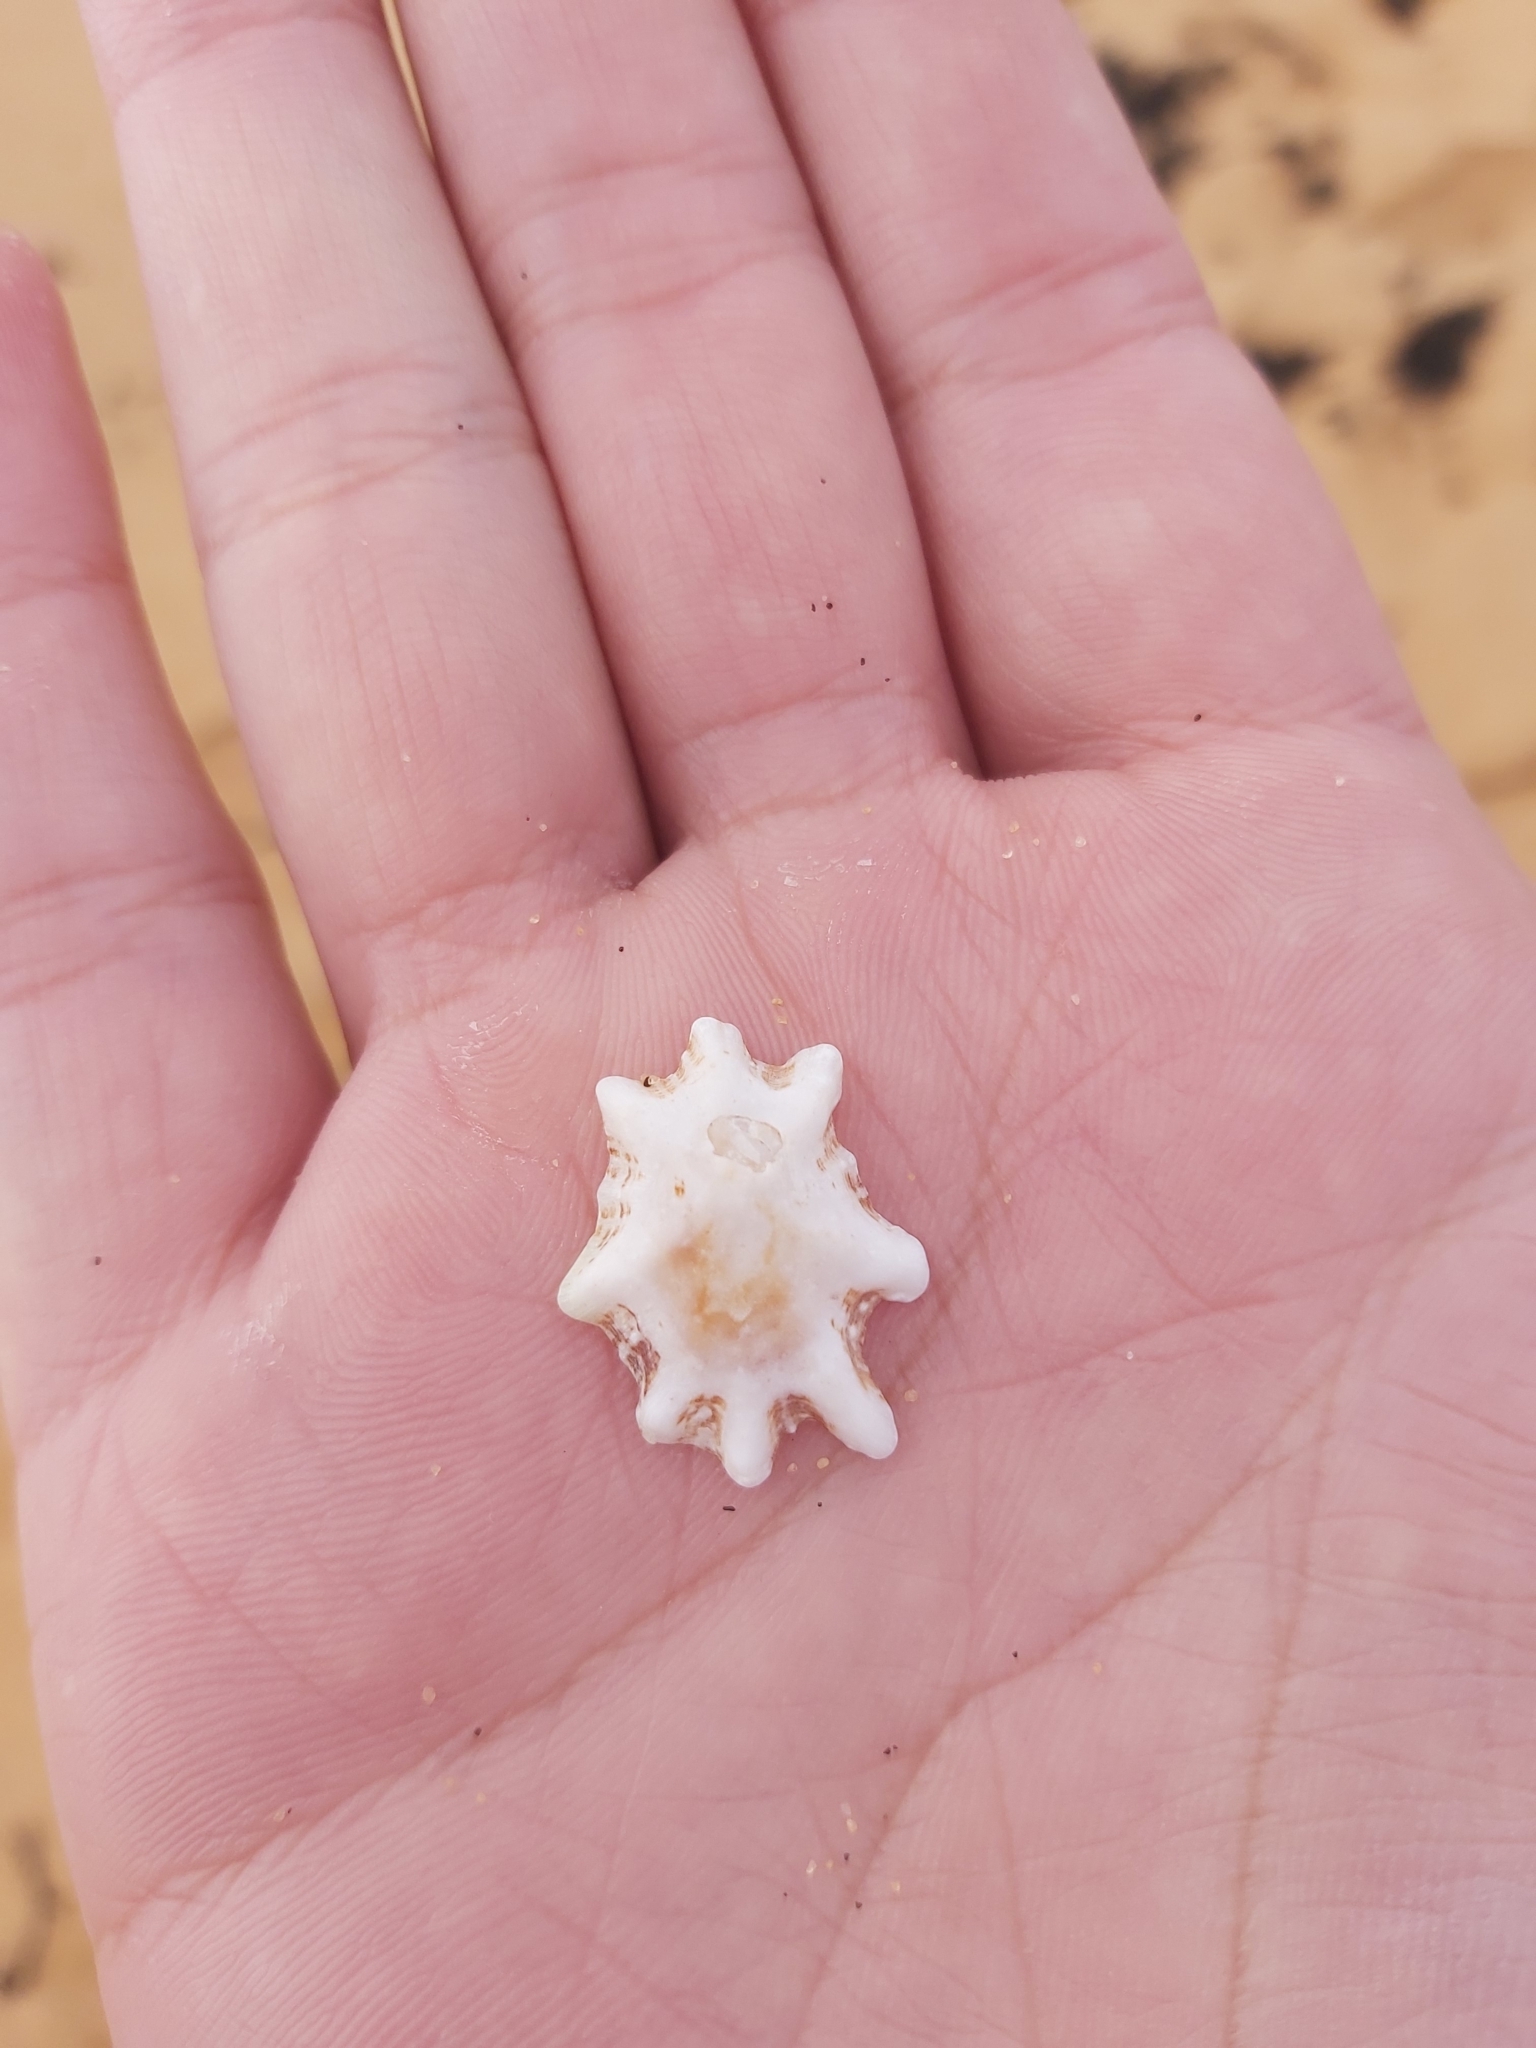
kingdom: Animalia
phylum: Mollusca
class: Gastropoda
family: Patellidae
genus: Scutellastra
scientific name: Scutellastra chapmani
